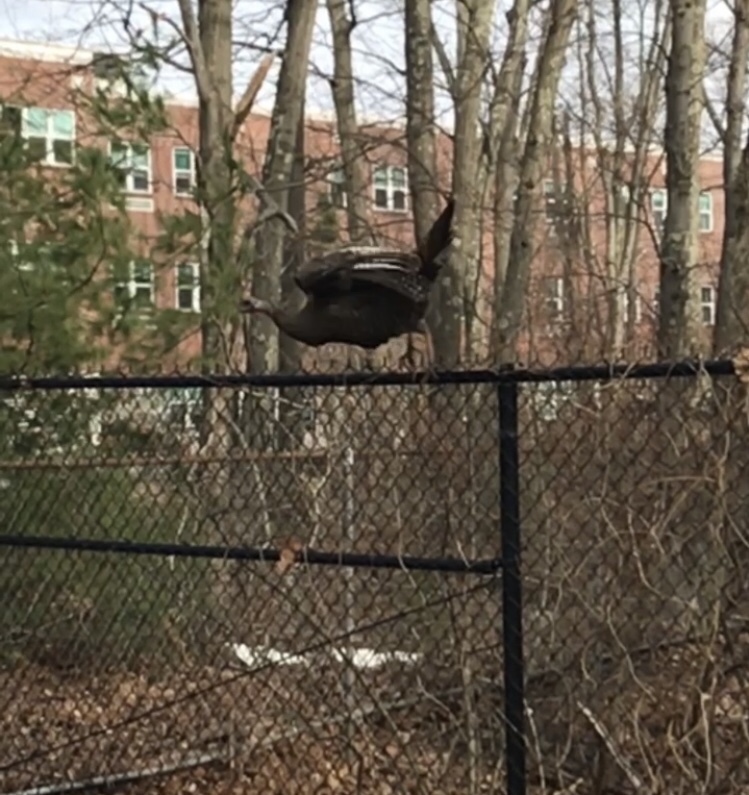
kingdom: Animalia
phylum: Chordata
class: Aves
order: Galliformes
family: Phasianidae
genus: Meleagris
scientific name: Meleagris gallopavo
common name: Wild turkey
